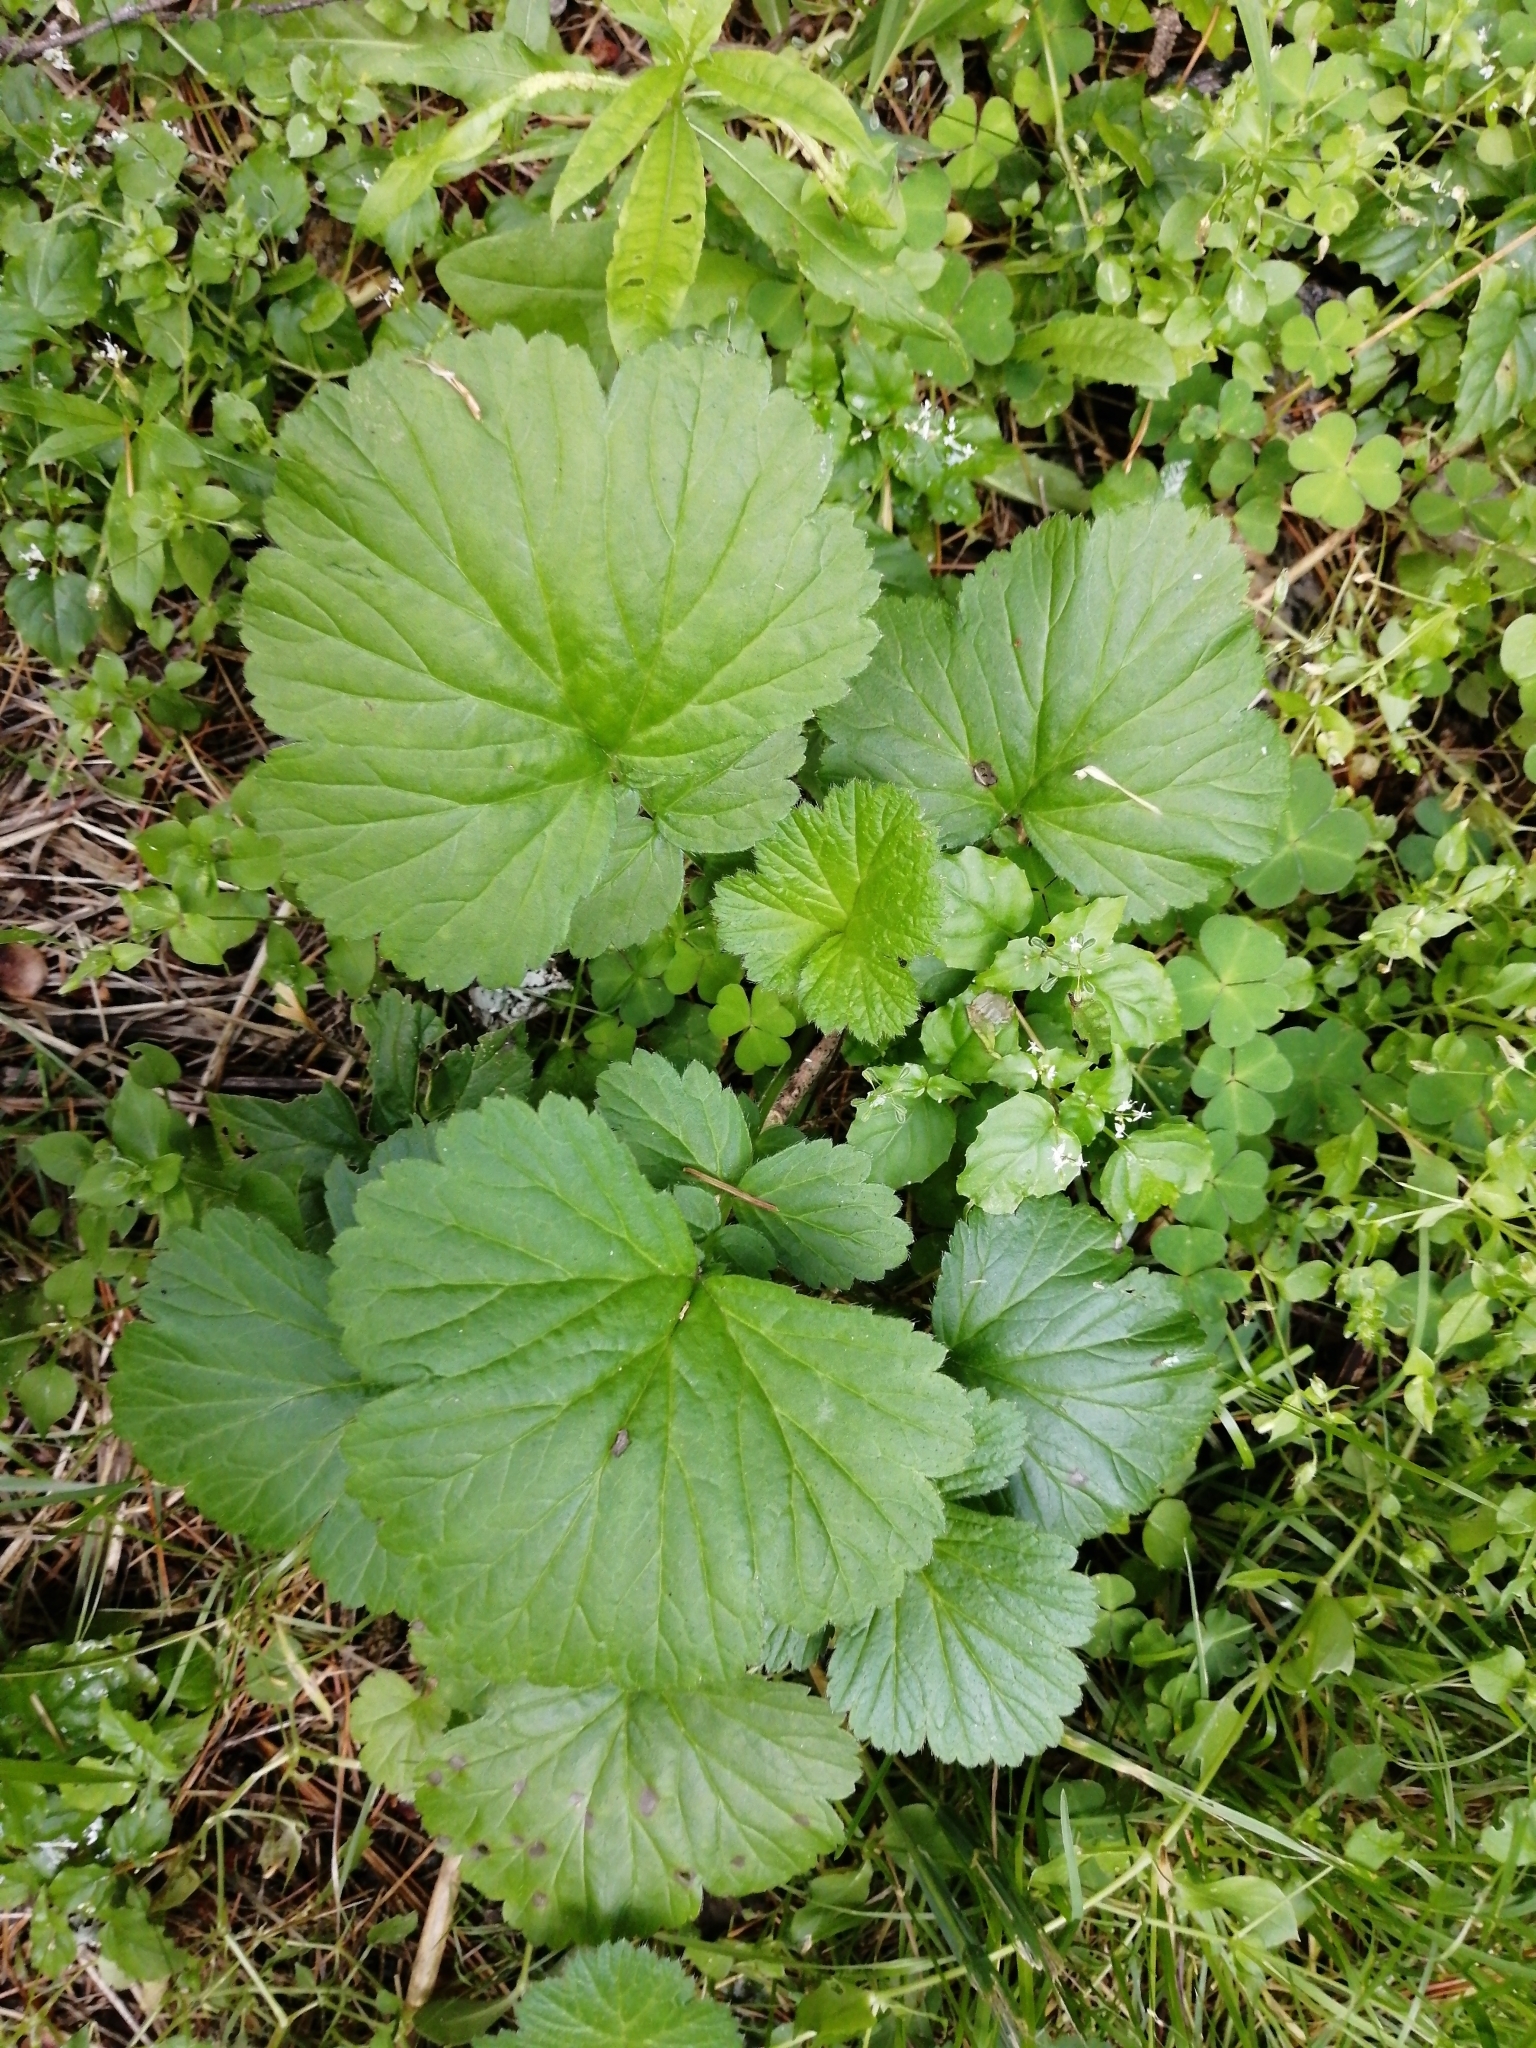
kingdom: Plantae
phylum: Tracheophyta
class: Magnoliopsida
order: Rosales
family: Rosaceae
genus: Geum
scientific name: Geum
